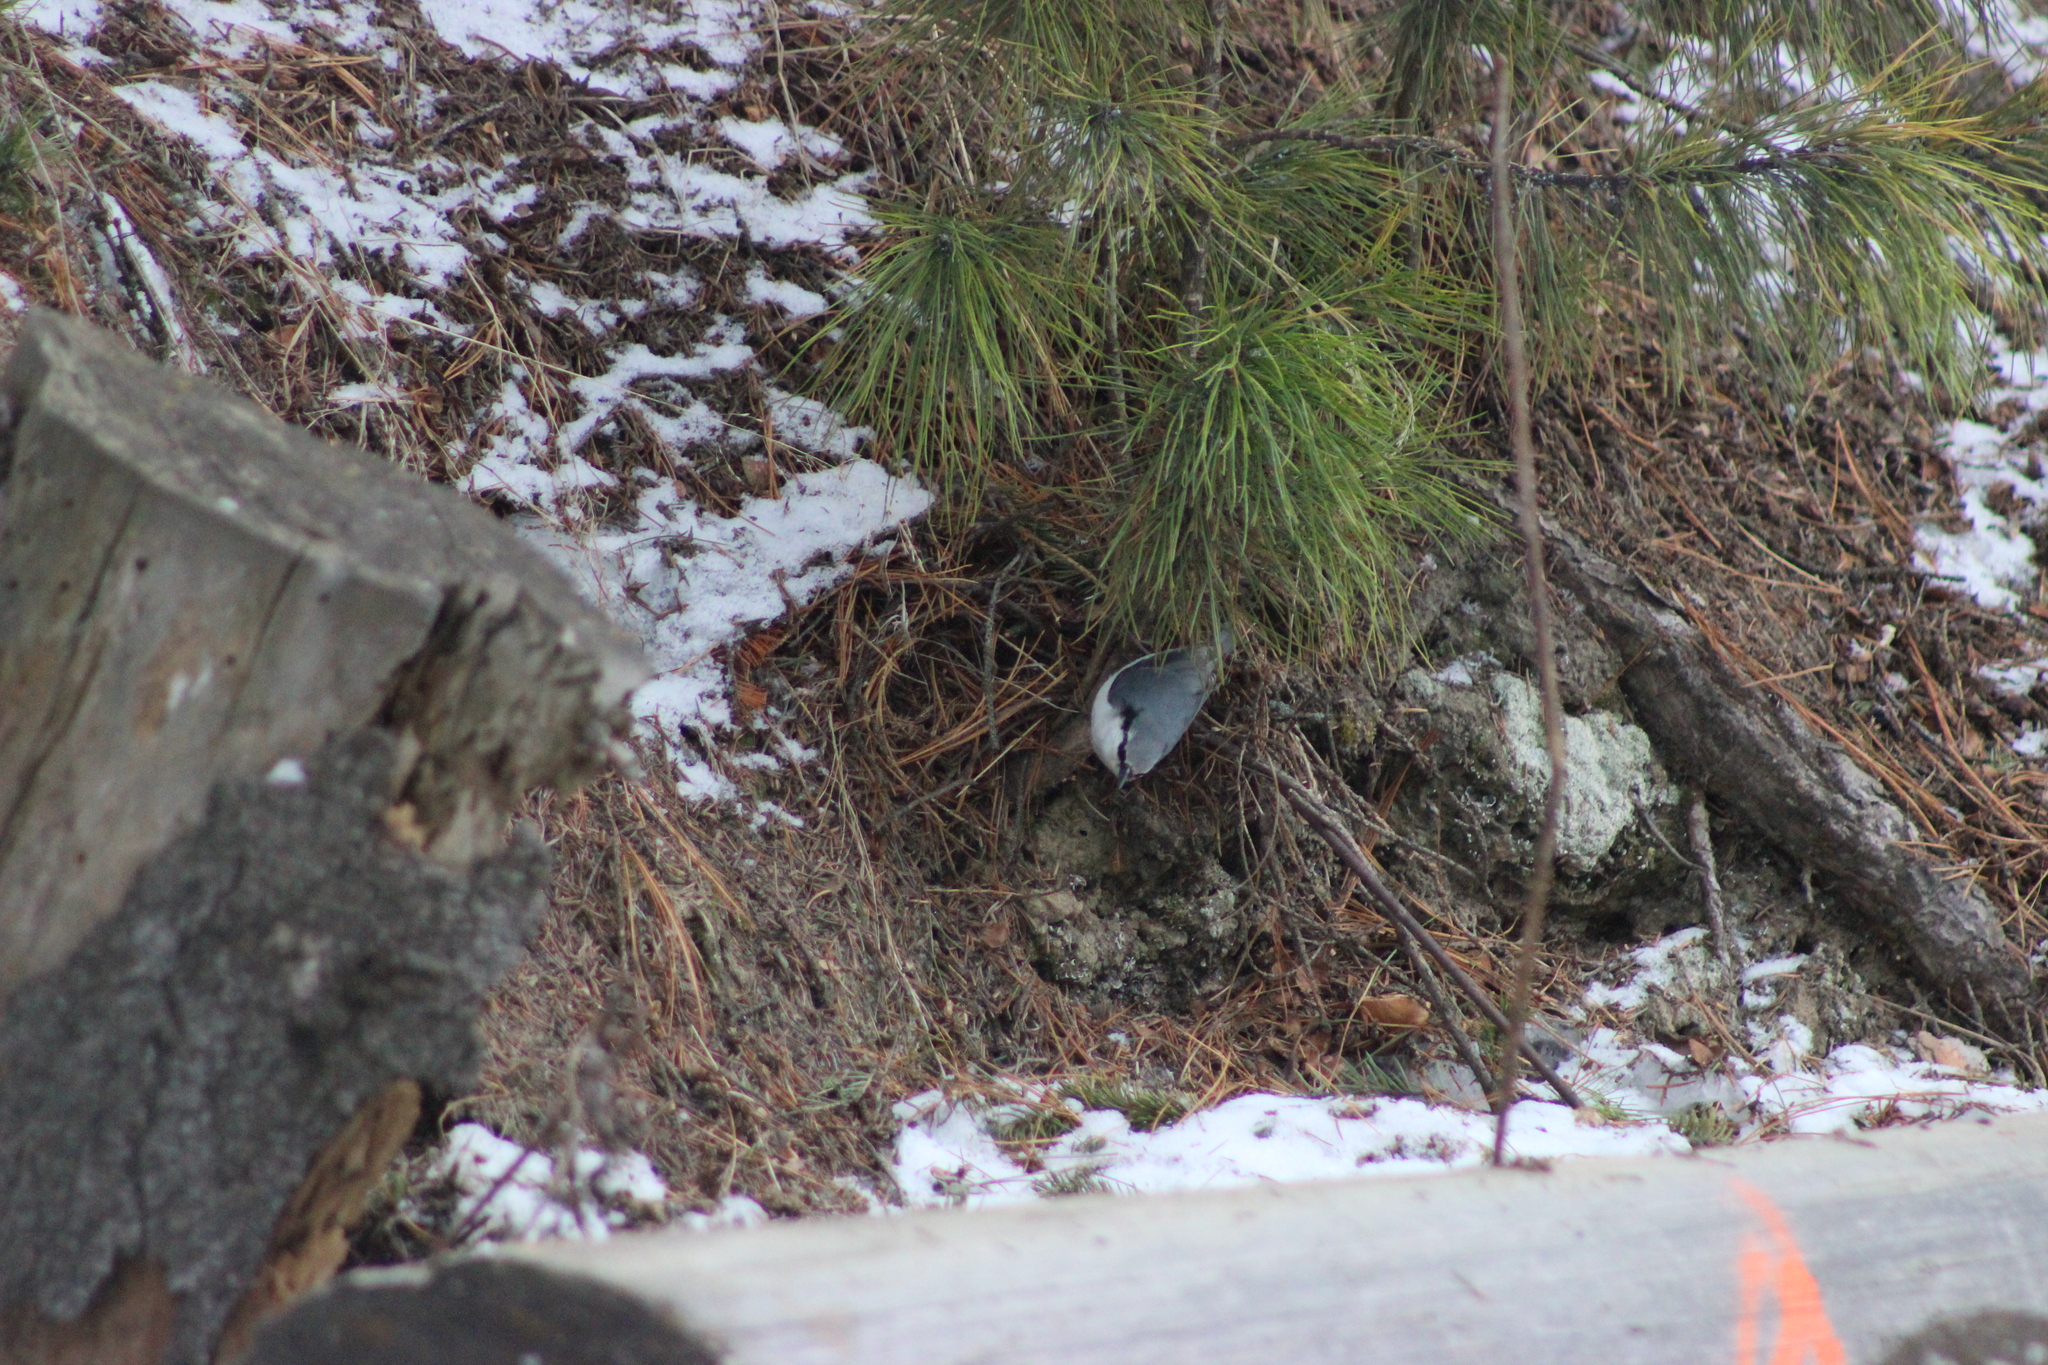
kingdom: Animalia
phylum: Chordata
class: Aves
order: Passeriformes
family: Sittidae
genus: Sitta
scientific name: Sitta europaea
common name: Eurasian nuthatch
